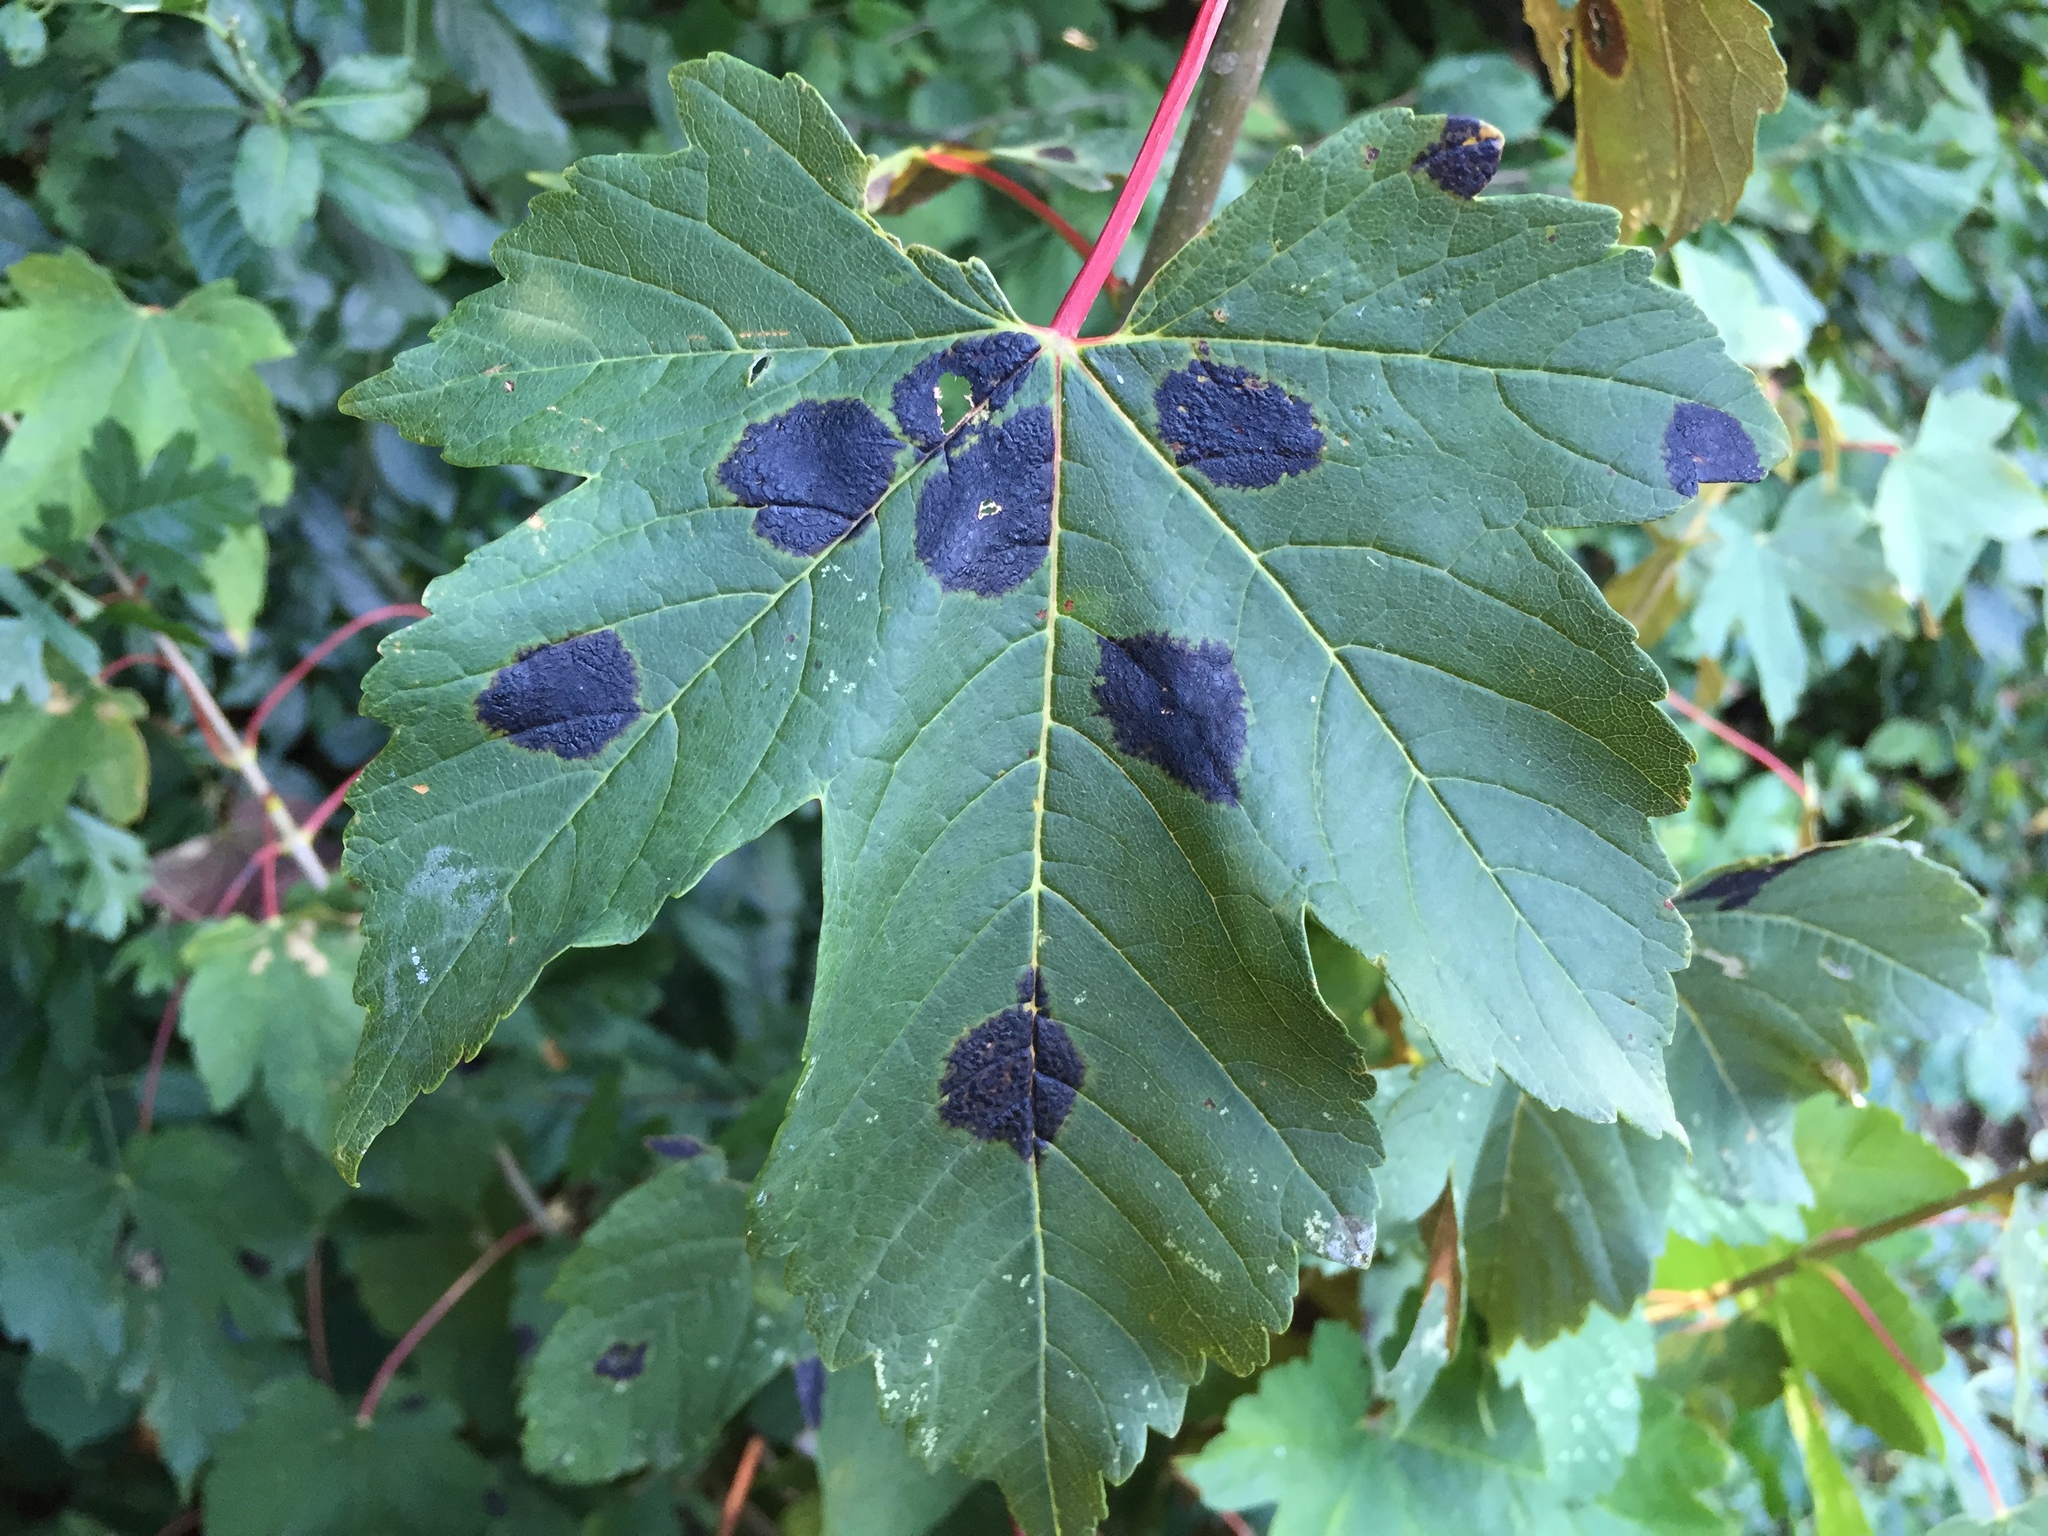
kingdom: Plantae
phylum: Tracheophyta
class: Magnoliopsida
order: Sapindales
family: Sapindaceae
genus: Acer
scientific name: Acer pseudoplatanus
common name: Sycamore
